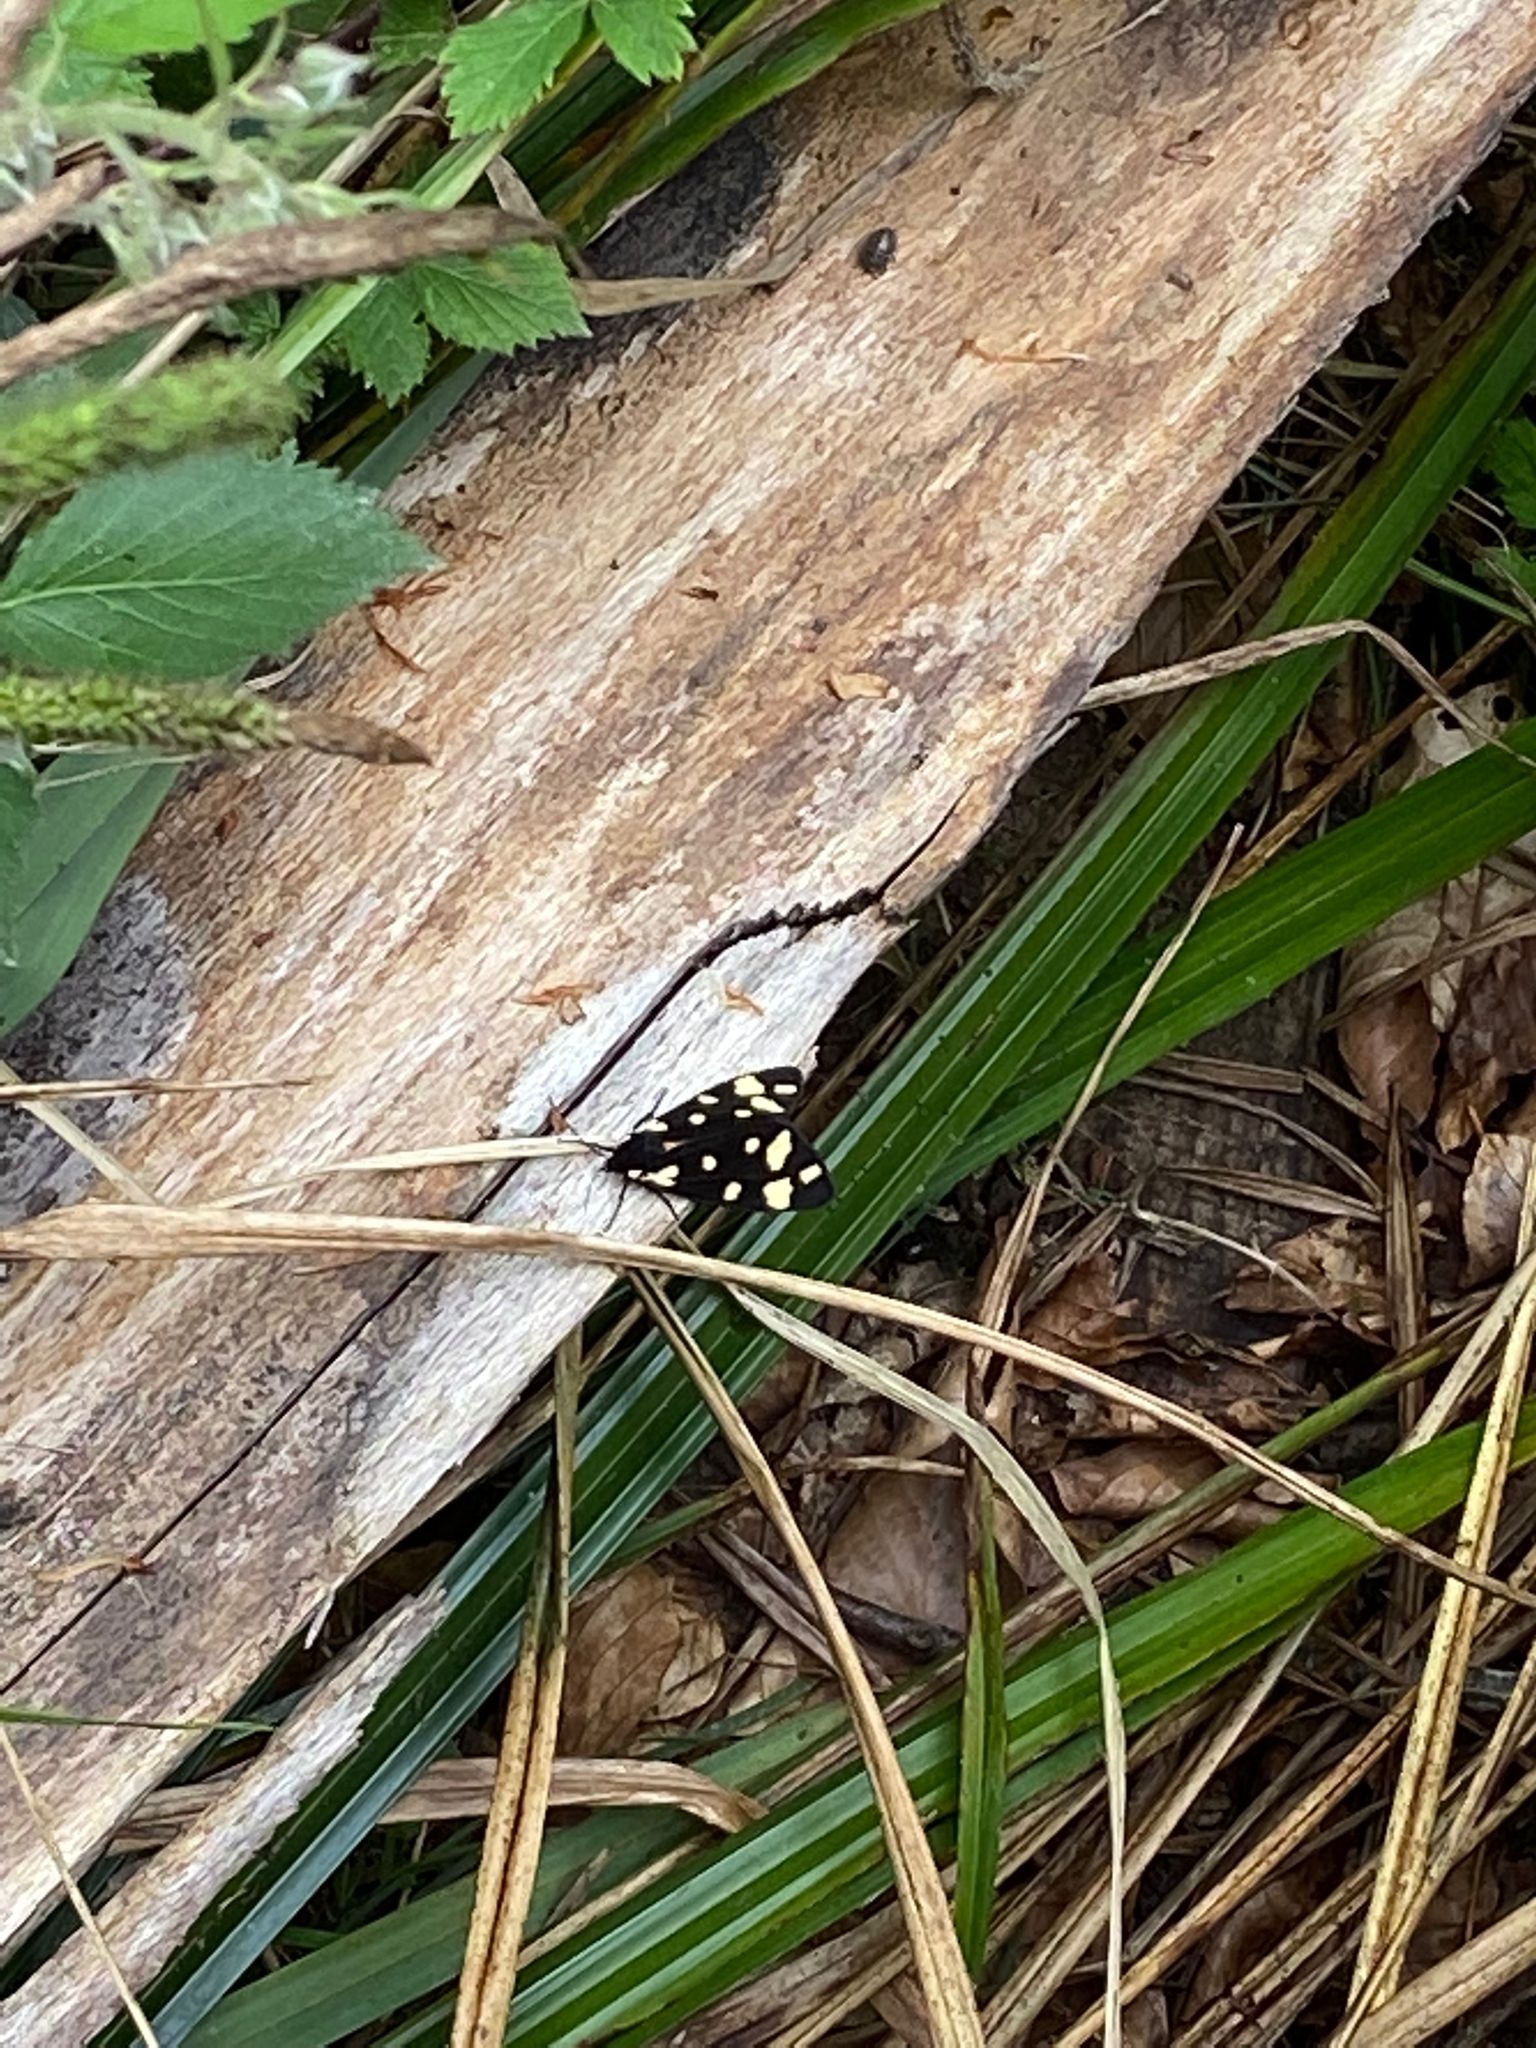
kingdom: Animalia
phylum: Arthropoda
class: Insecta
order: Lepidoptera
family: Erebidae
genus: Epicallia
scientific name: Epicallia villica
